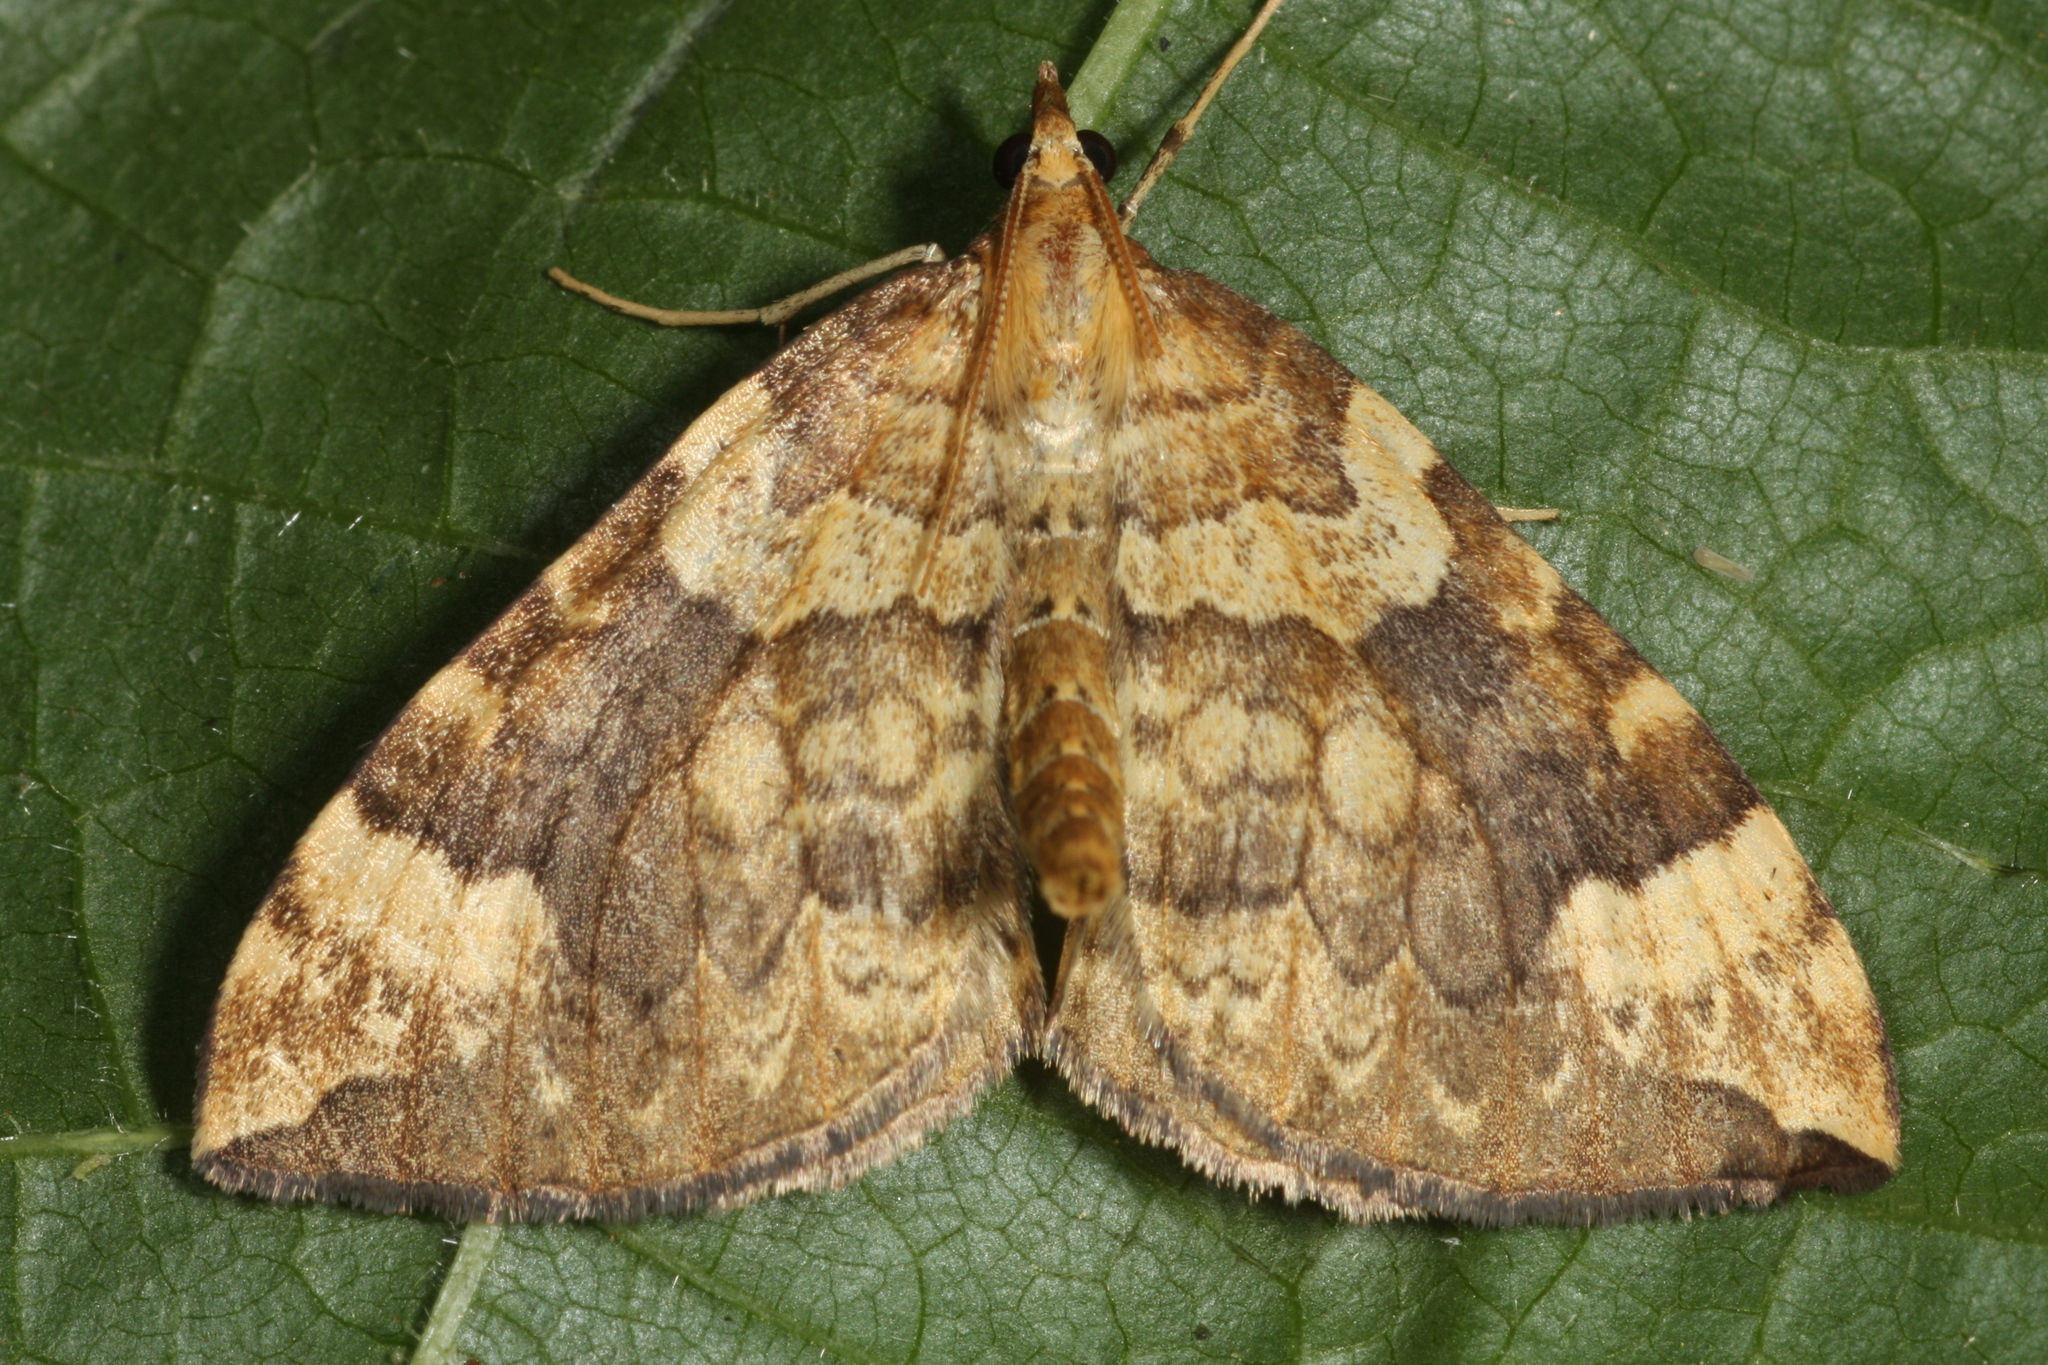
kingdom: Animalia
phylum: Arthropoda
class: Insecta
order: Lepidoptera
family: Geometridae
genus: Eulithis
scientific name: Eulithis populata
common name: Northern spinach
